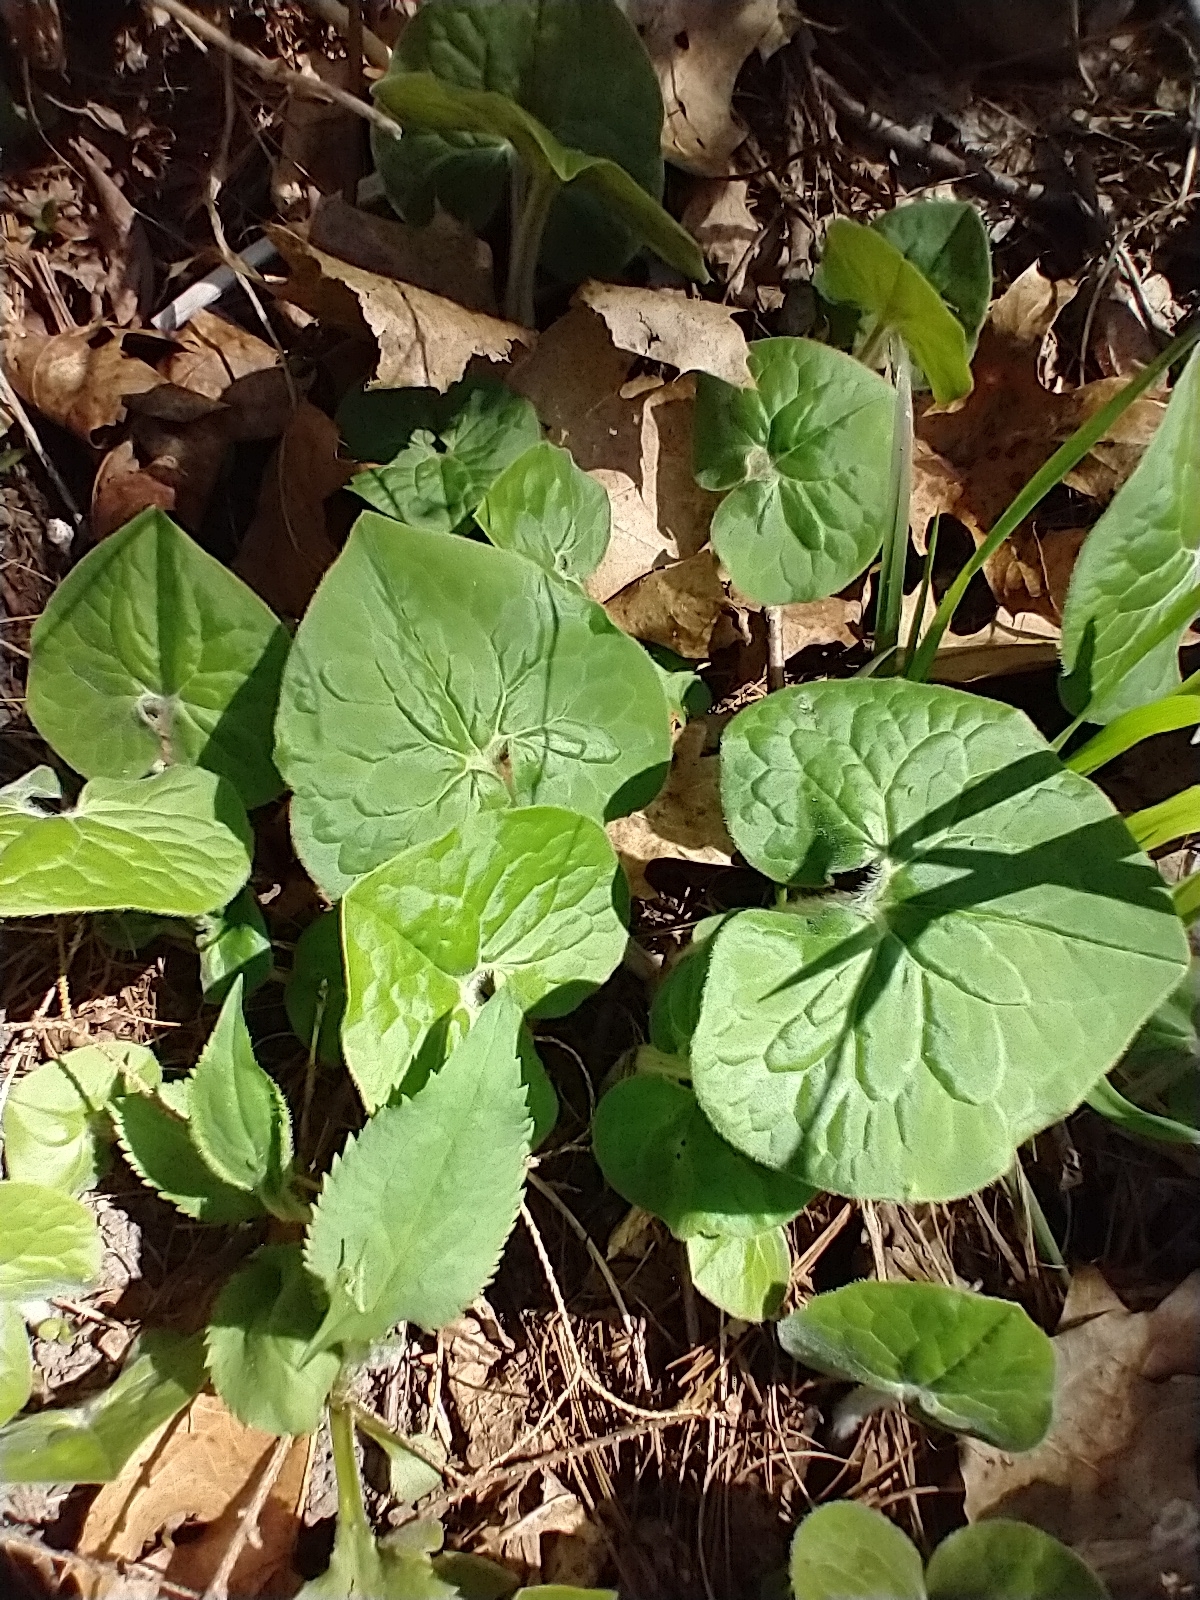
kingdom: Plantae
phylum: Tracheophyta
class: Magnoliopsida
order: Piperales
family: Aristolochiaceae
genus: Asarum
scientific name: Asarum canadense
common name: Wild ginger
